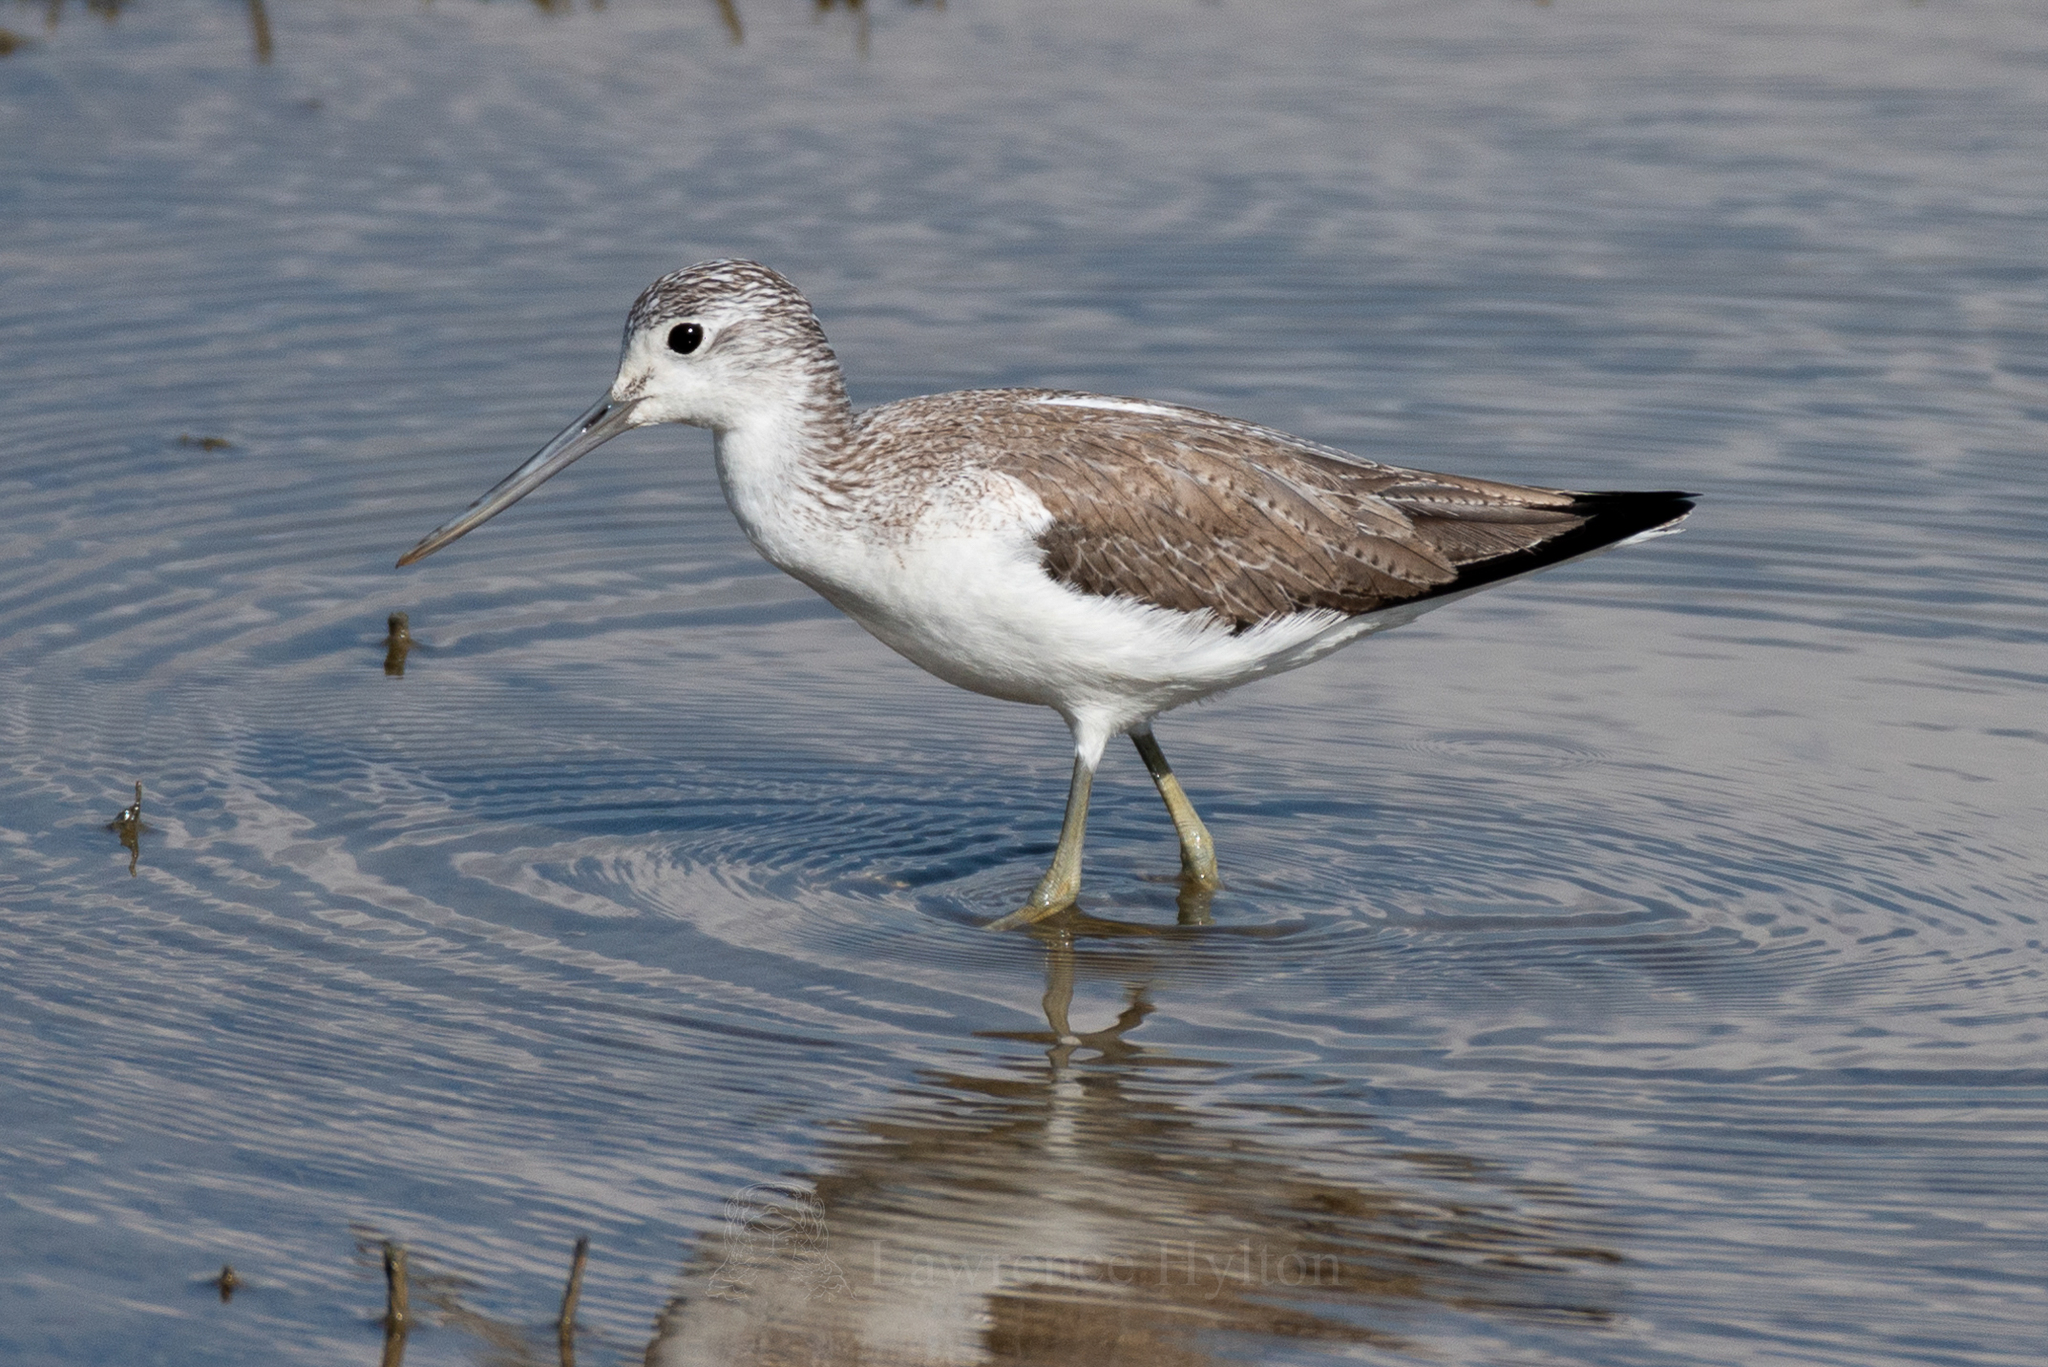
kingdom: Animalia
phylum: Chordata
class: Aves
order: Charadriiformes
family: Scolopacidae
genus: Tringa
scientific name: Tringa nebularia
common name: Common greenshank
